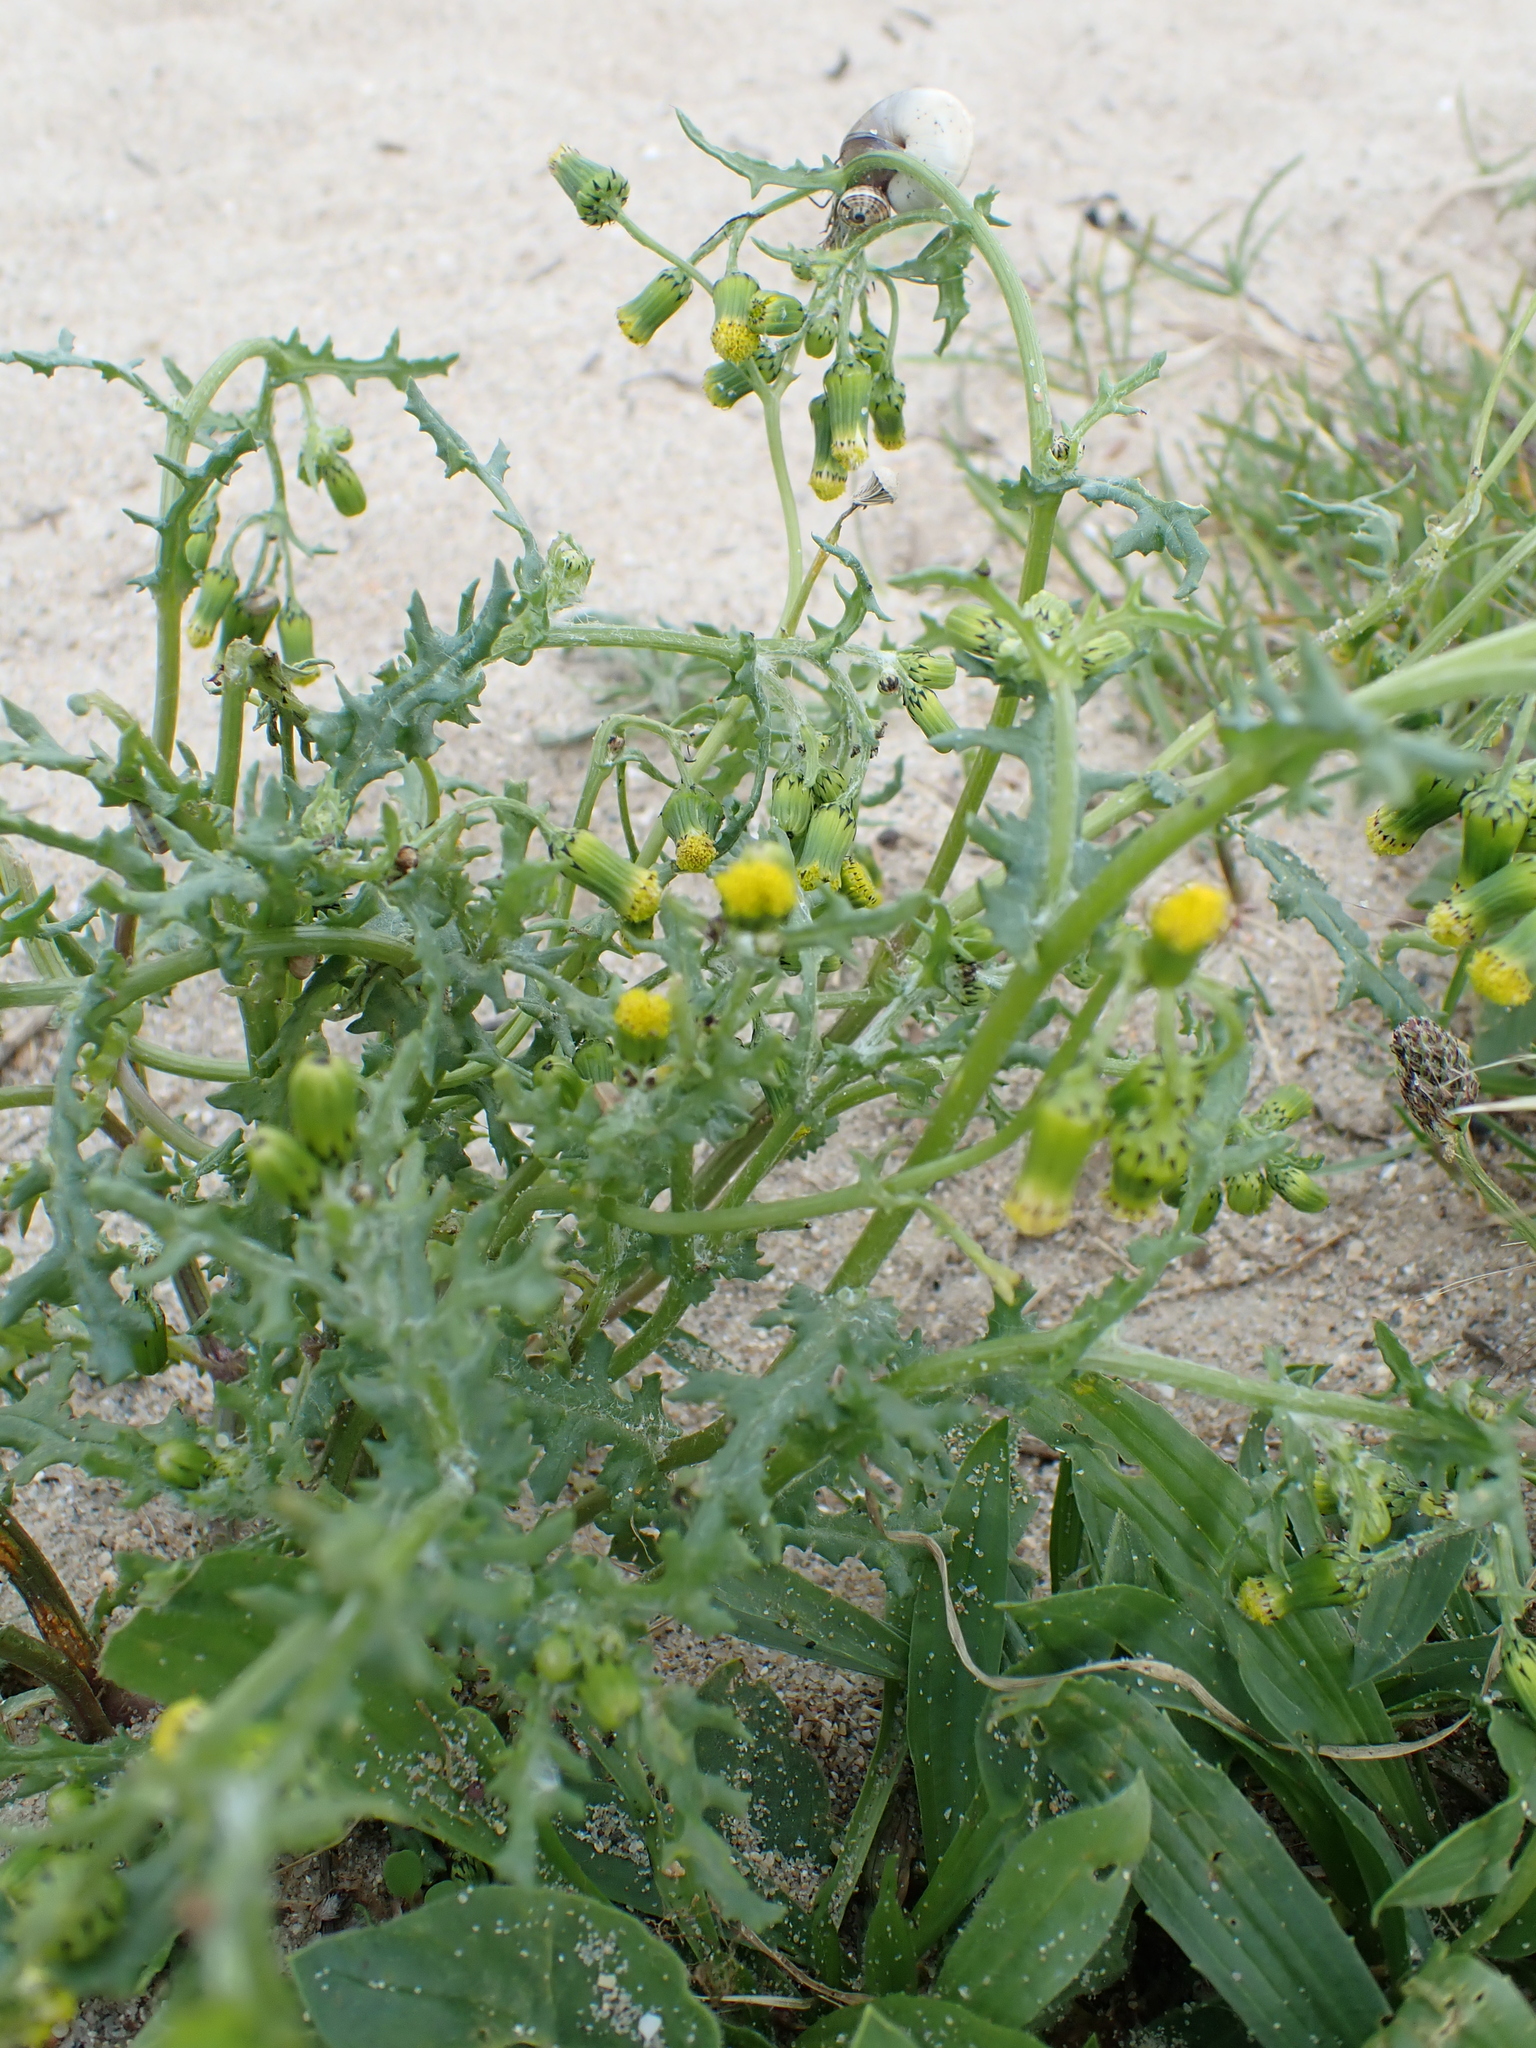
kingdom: Plantae
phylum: Tracheophyta
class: Magnoliopsida
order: Asterales
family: Asteraceae
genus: Senecio
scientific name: Senecio vulgaris
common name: Old-man-in-the-spring
